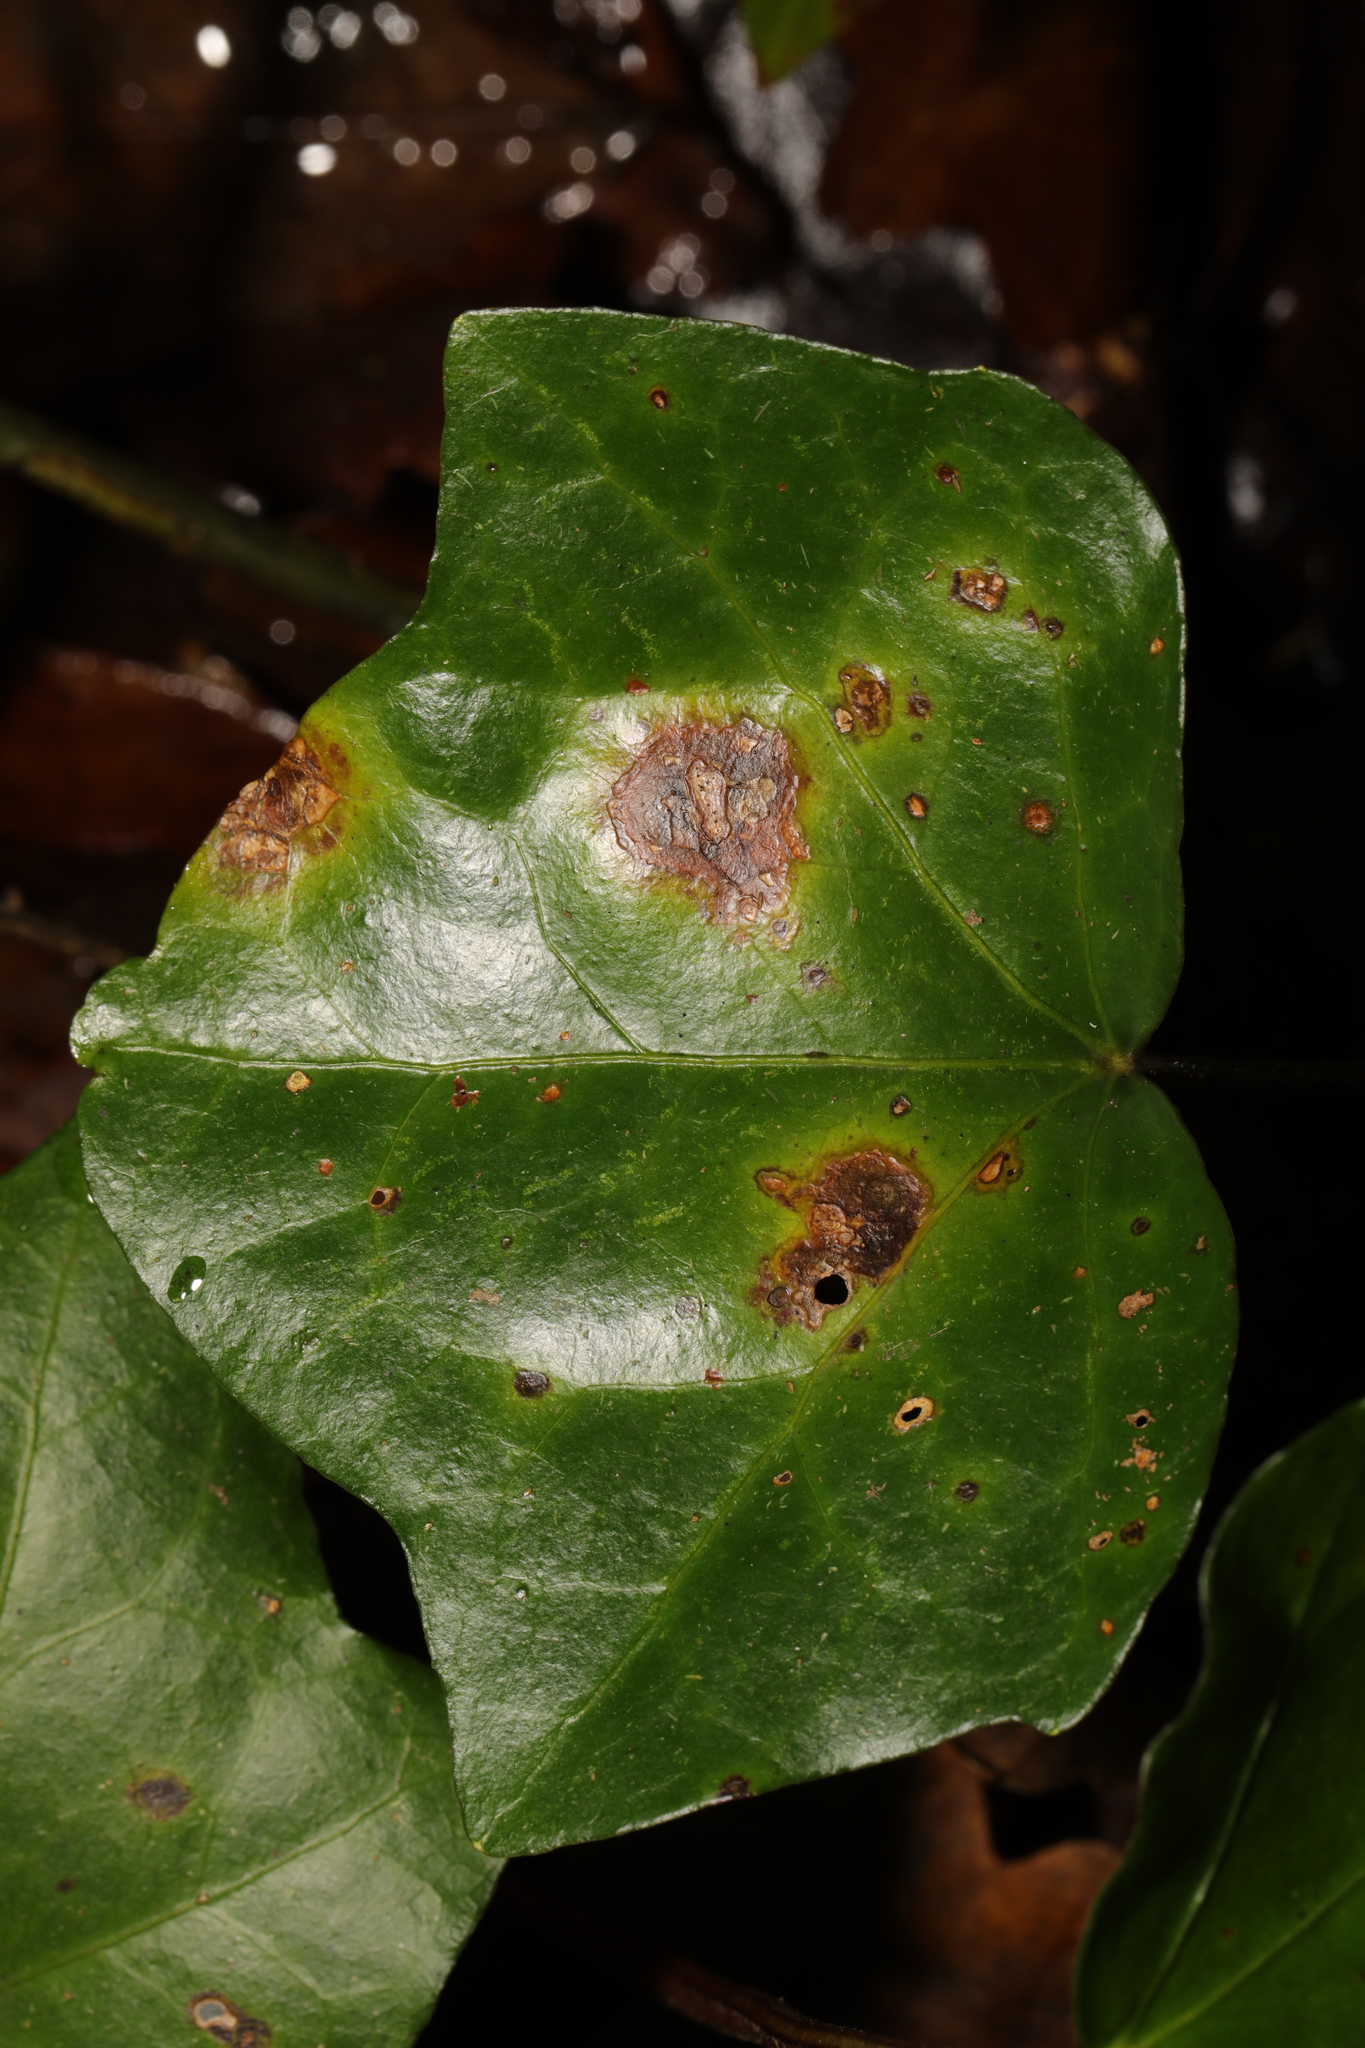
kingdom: Fungi
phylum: Ascomycota
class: Dothideomycetes
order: Pleosporales
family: Didymellaceae
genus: Boeremia
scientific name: Boeremia hedericola
